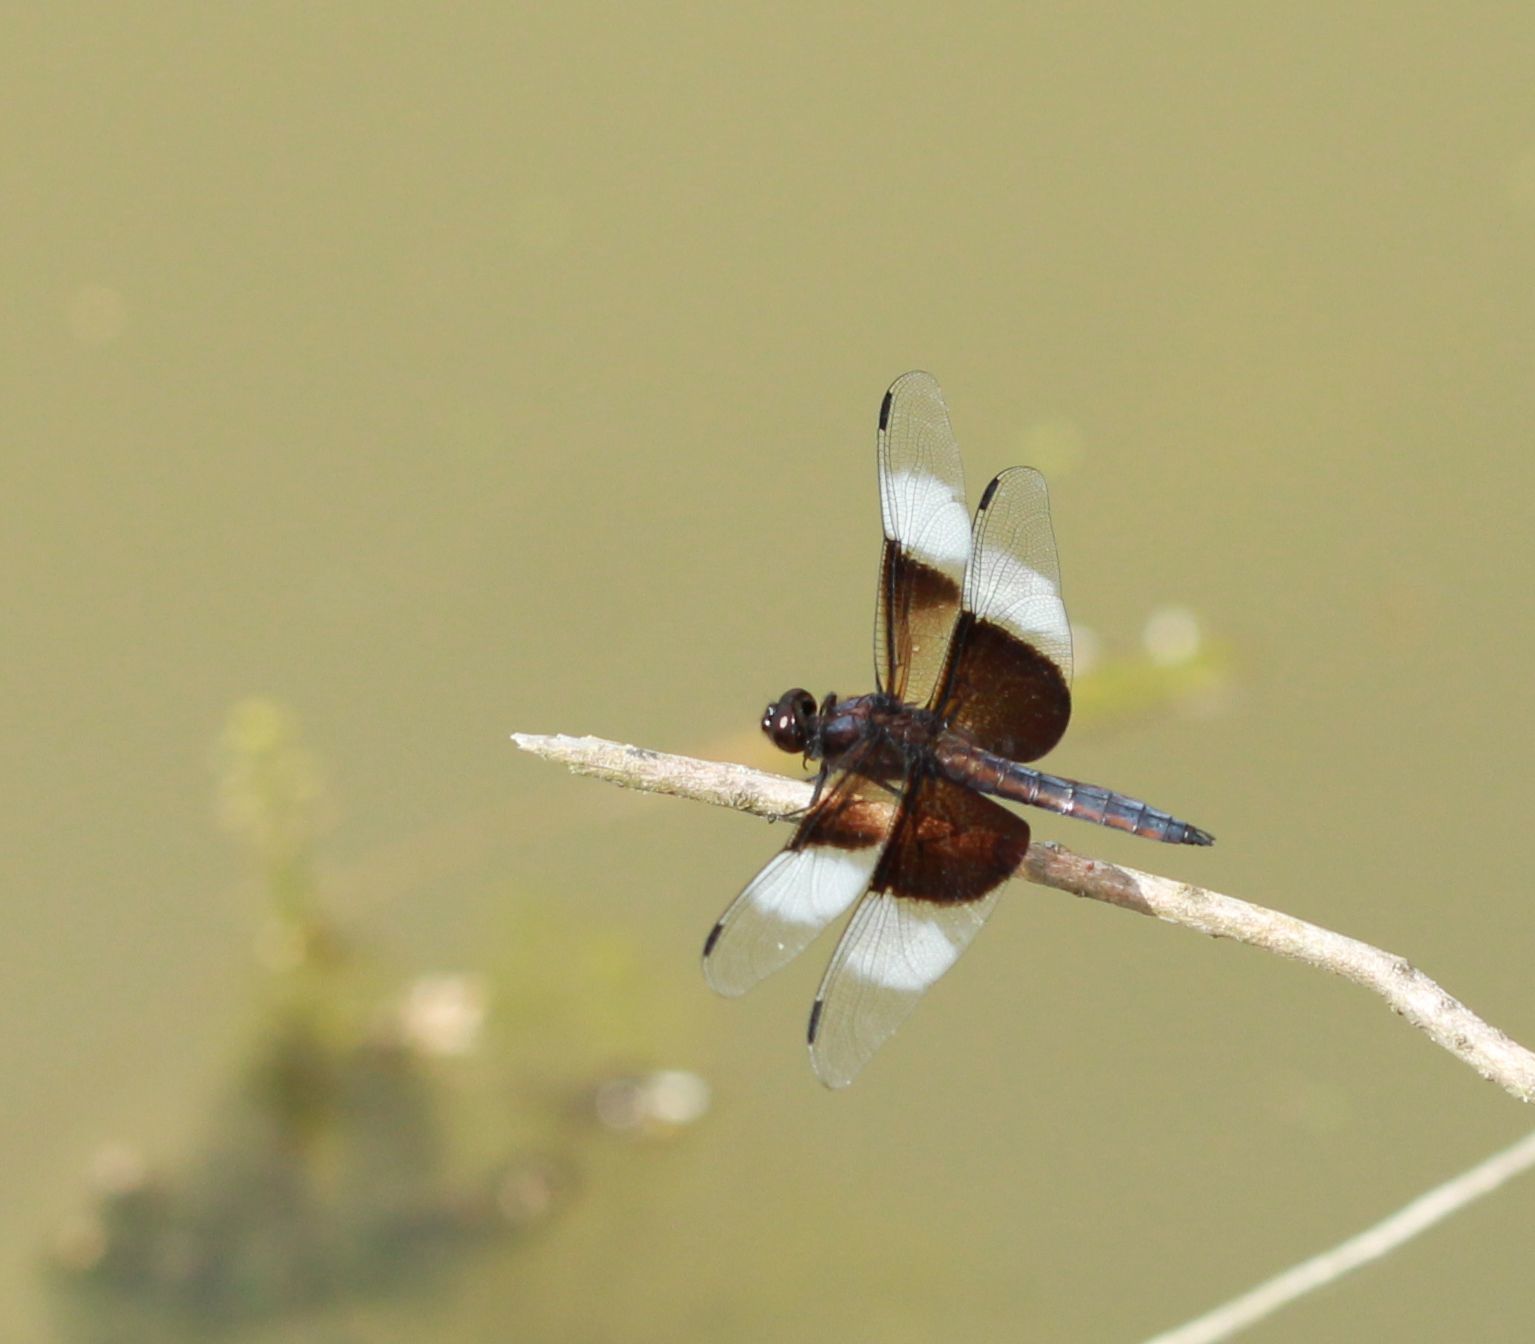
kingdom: Animalia
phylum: Arthropoda
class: Insecta
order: Odonata
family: Libellulidae
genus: Libellula
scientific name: Libellula luctuosa
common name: Widow skimmer
